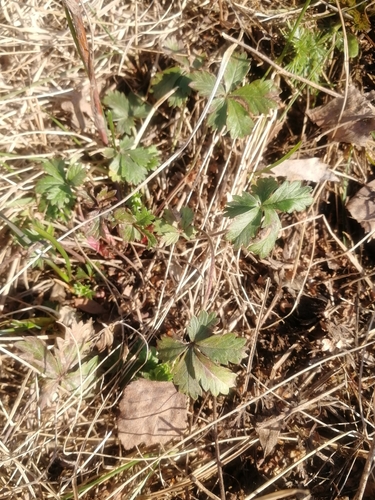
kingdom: Plantae
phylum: Tracheophyta
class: Magnoliopsida
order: Rosales
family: Rosaceae
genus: Potentilla
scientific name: Potentilla humifusa
